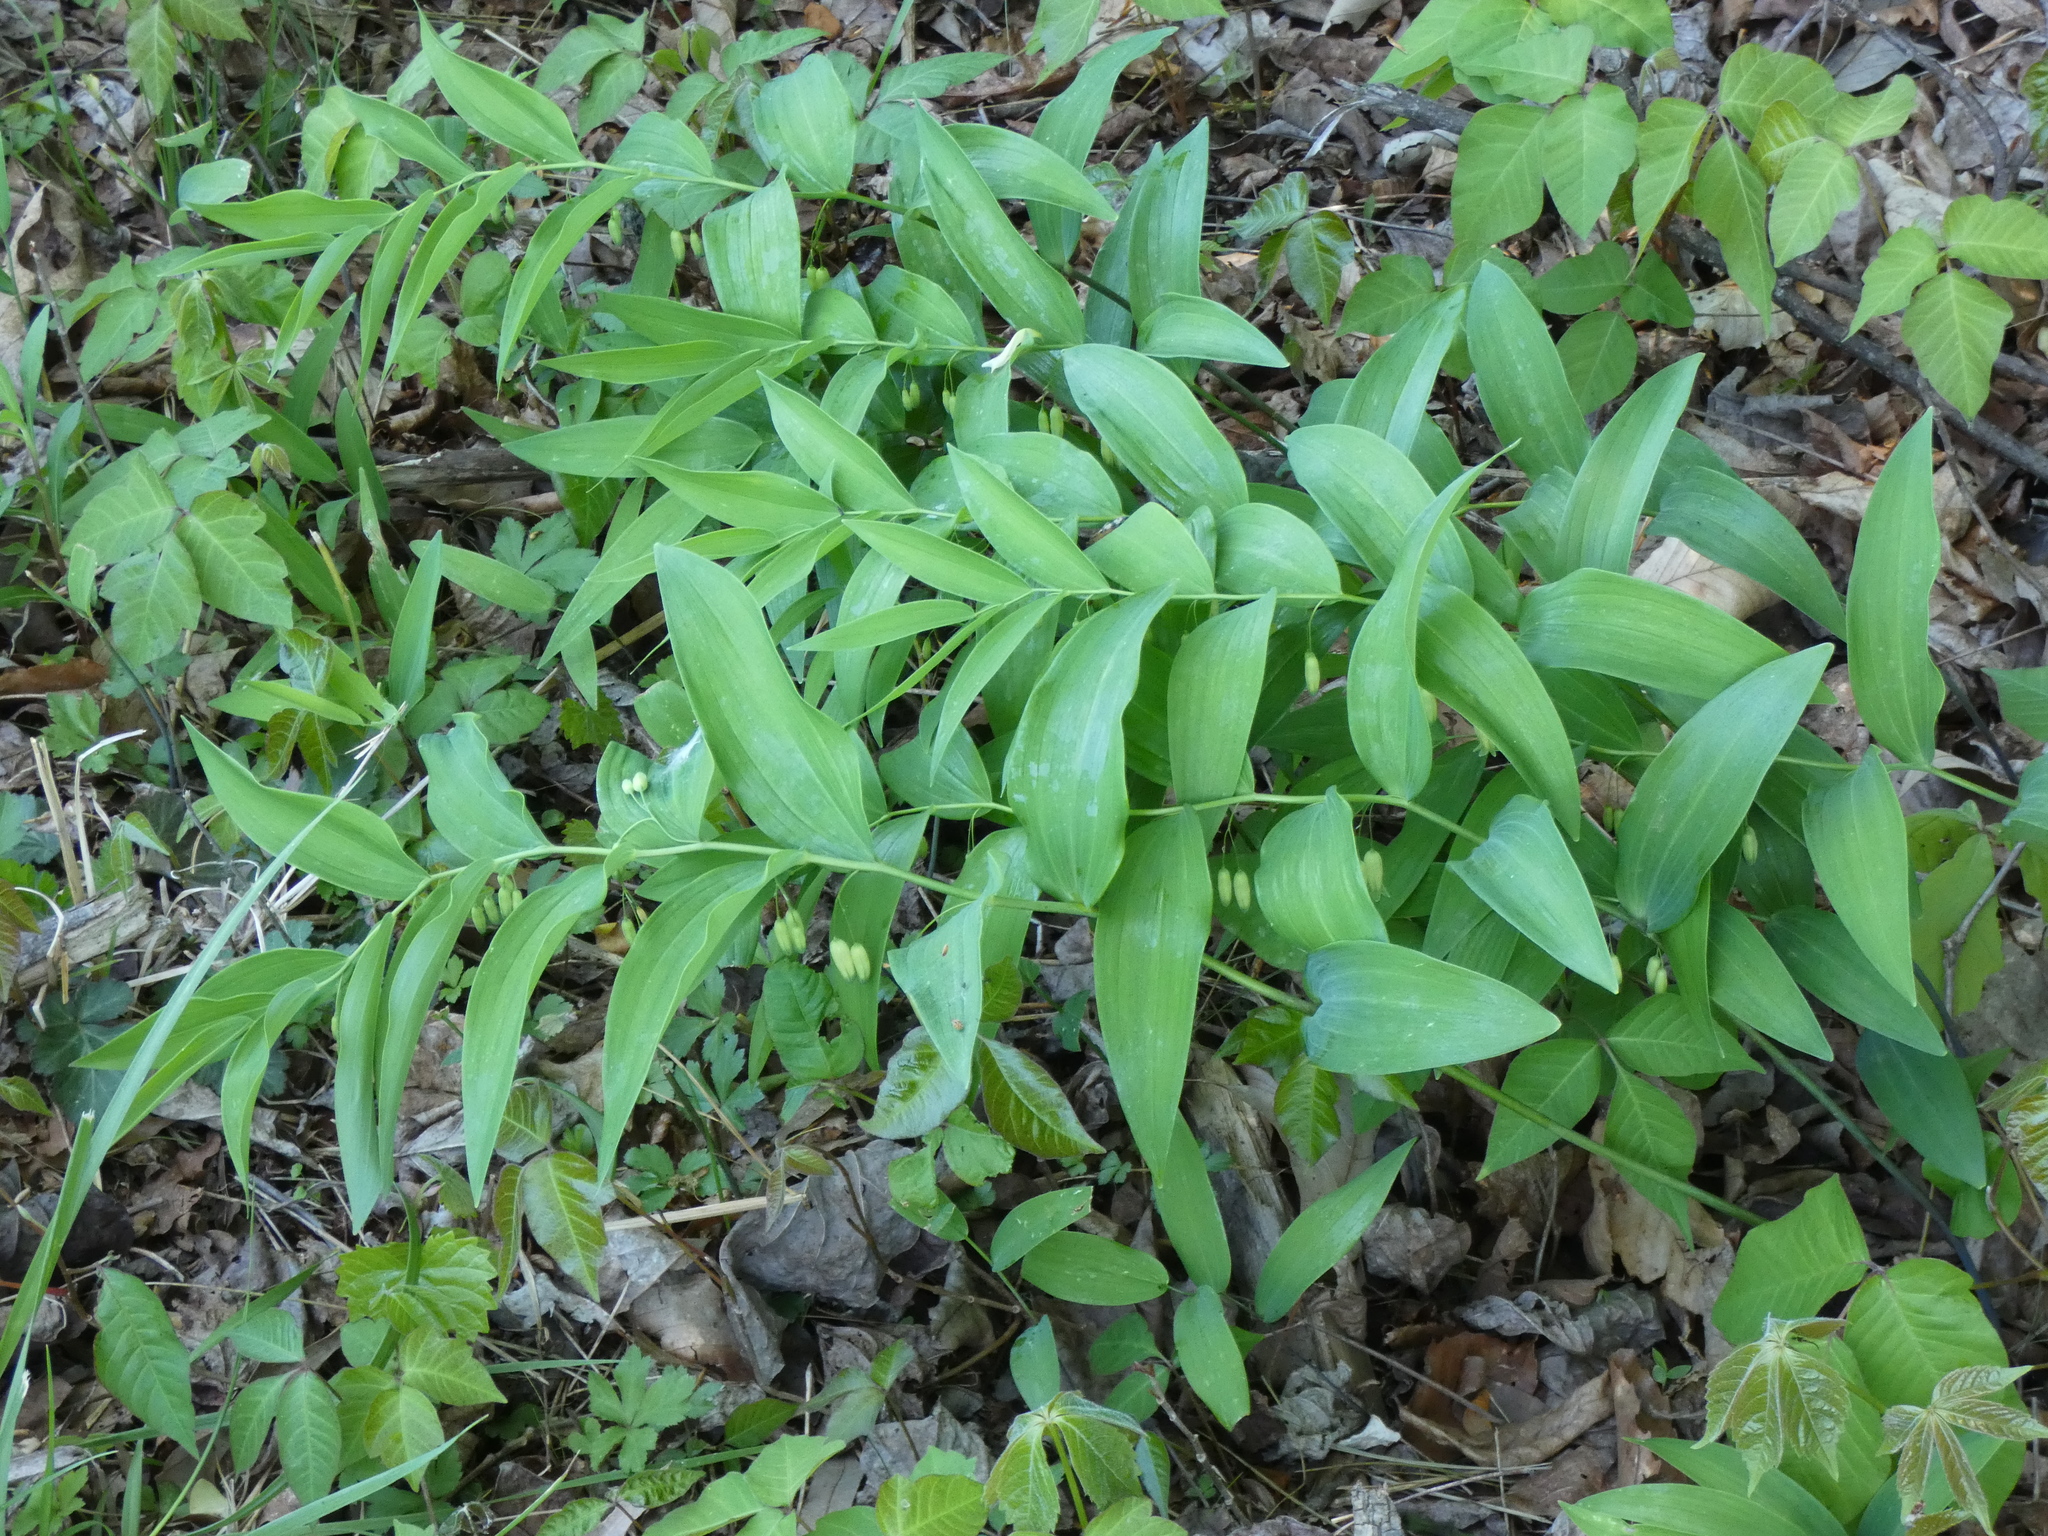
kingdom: Plantae
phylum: Tracheophyta
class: Liliopsida
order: Asparagales
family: Asparagaceae
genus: Polygonatum
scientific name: Polygonatum biflorum
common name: American solomon's-seal
